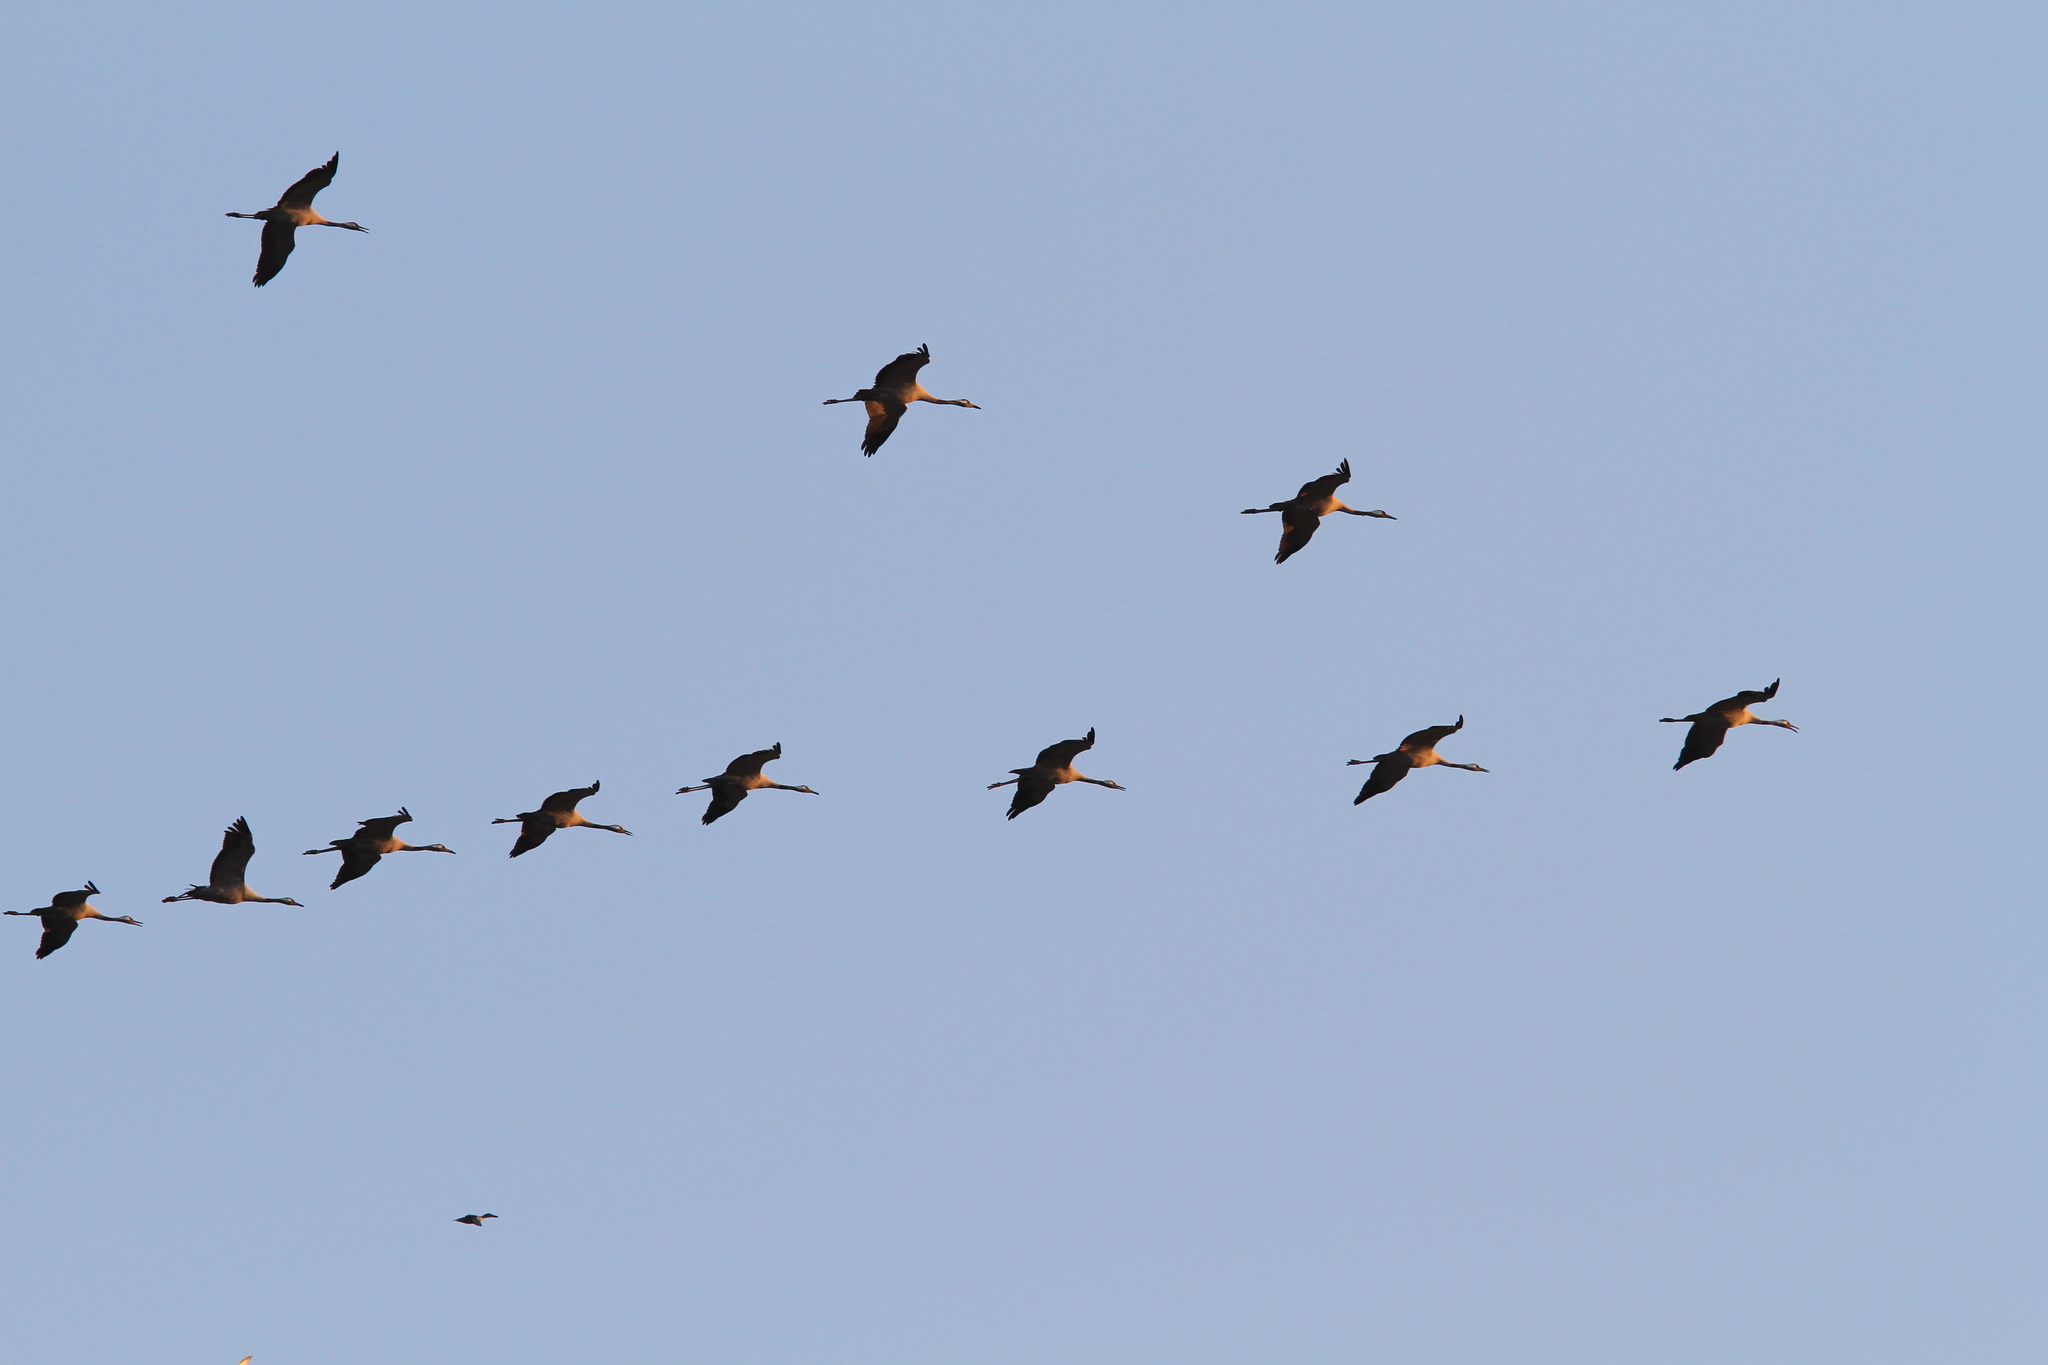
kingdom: Animalia
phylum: Chordata
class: Aves
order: Gruiformes
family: Gruidae
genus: Grus
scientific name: Grus grus
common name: Common crane
